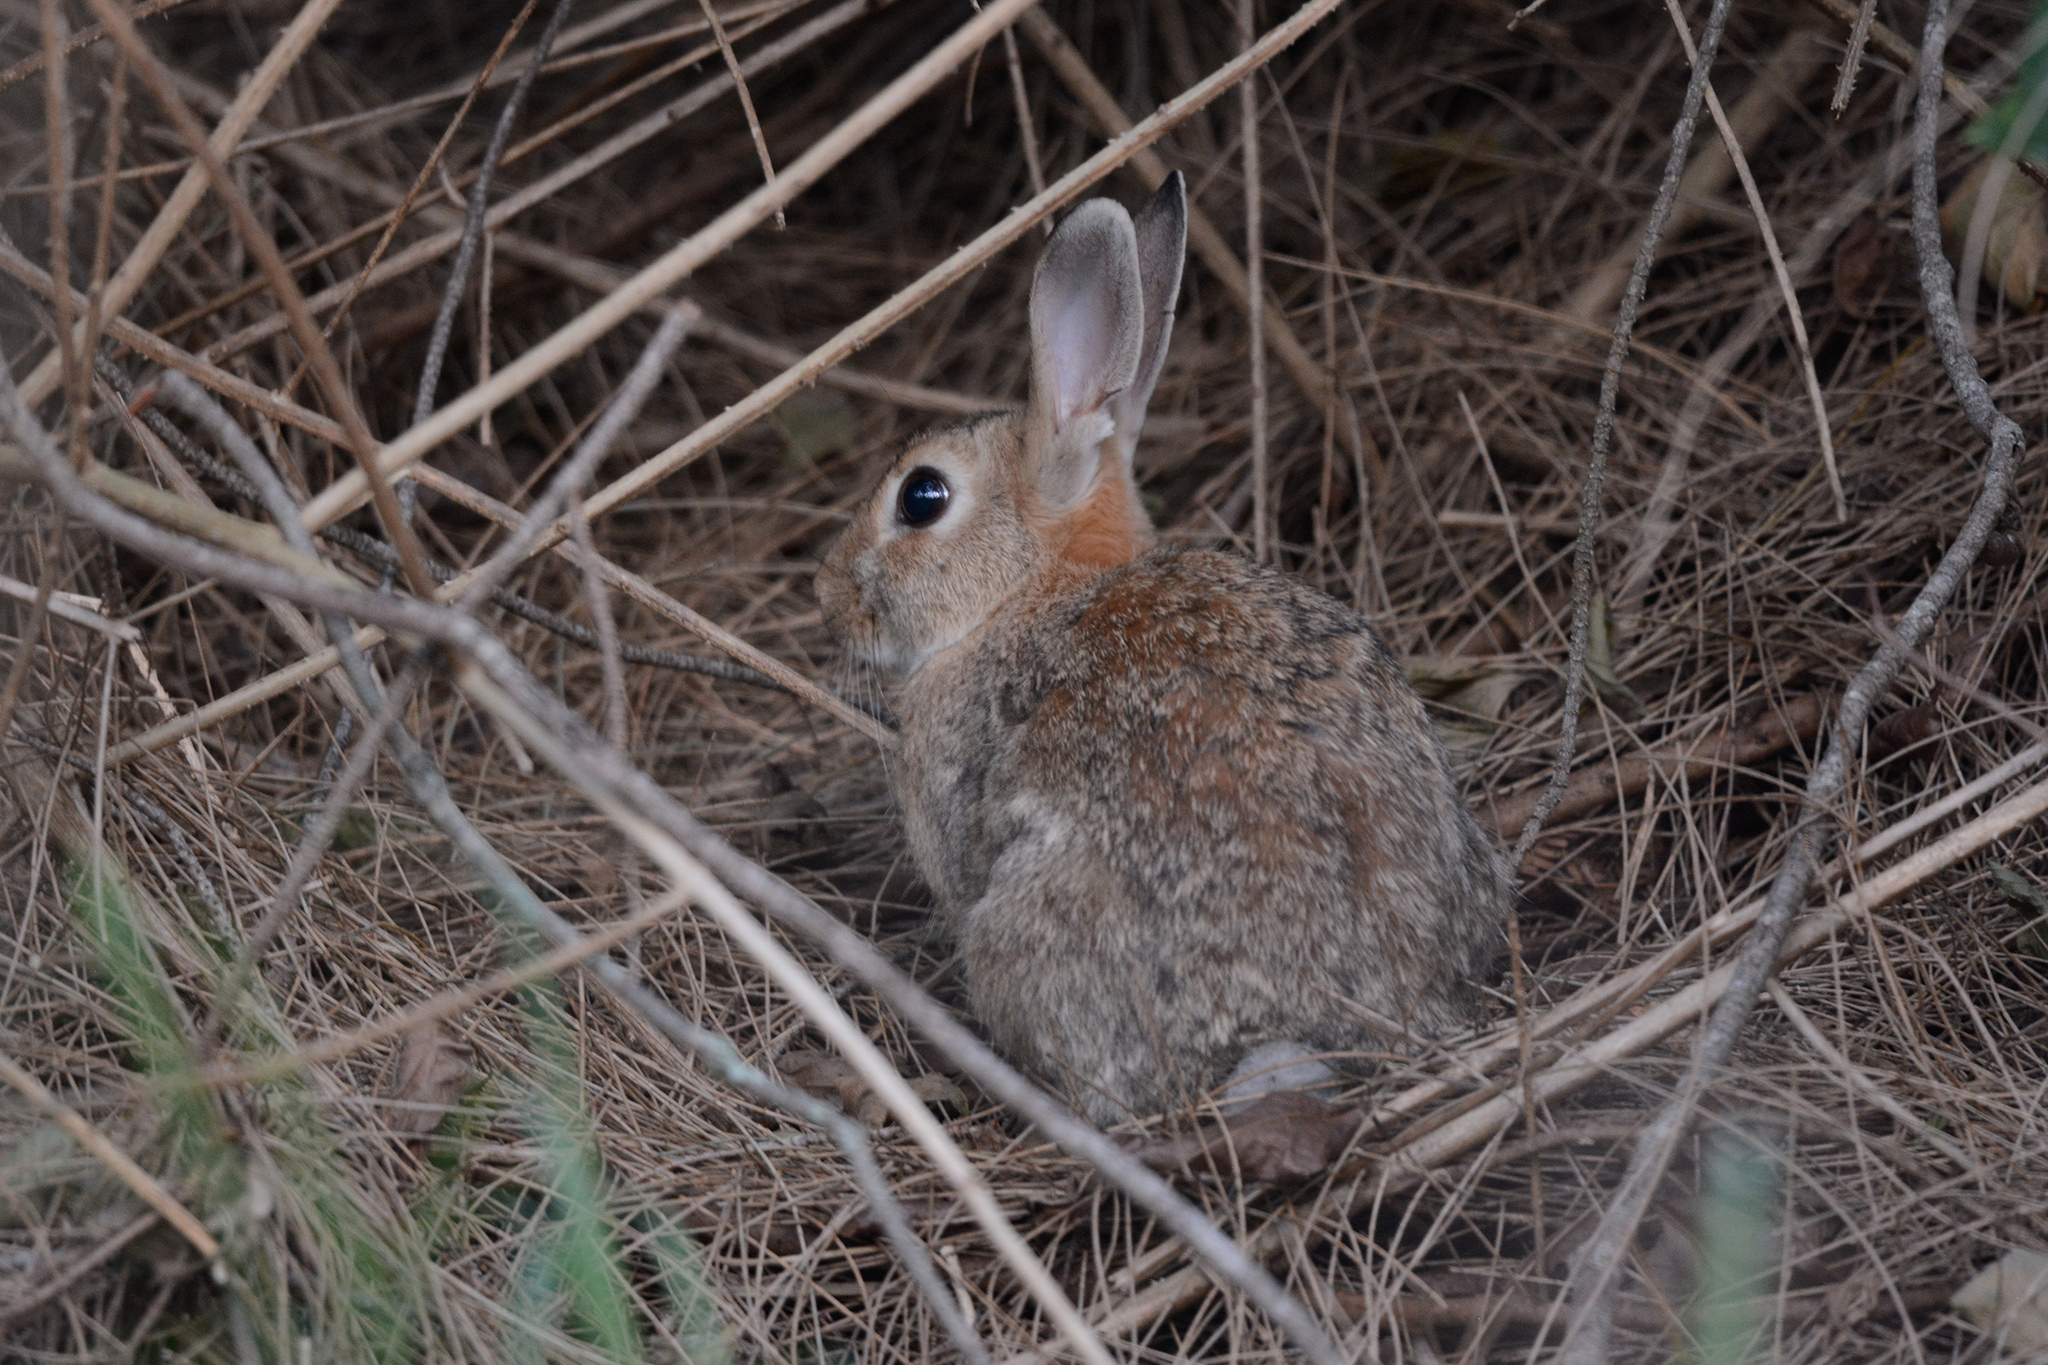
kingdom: Animalia
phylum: Chordata
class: Mammalia
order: Lagomorpha
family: Leporidae
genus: Oryctolagus
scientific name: Oryctolagus cuniculus
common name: European rabbit
